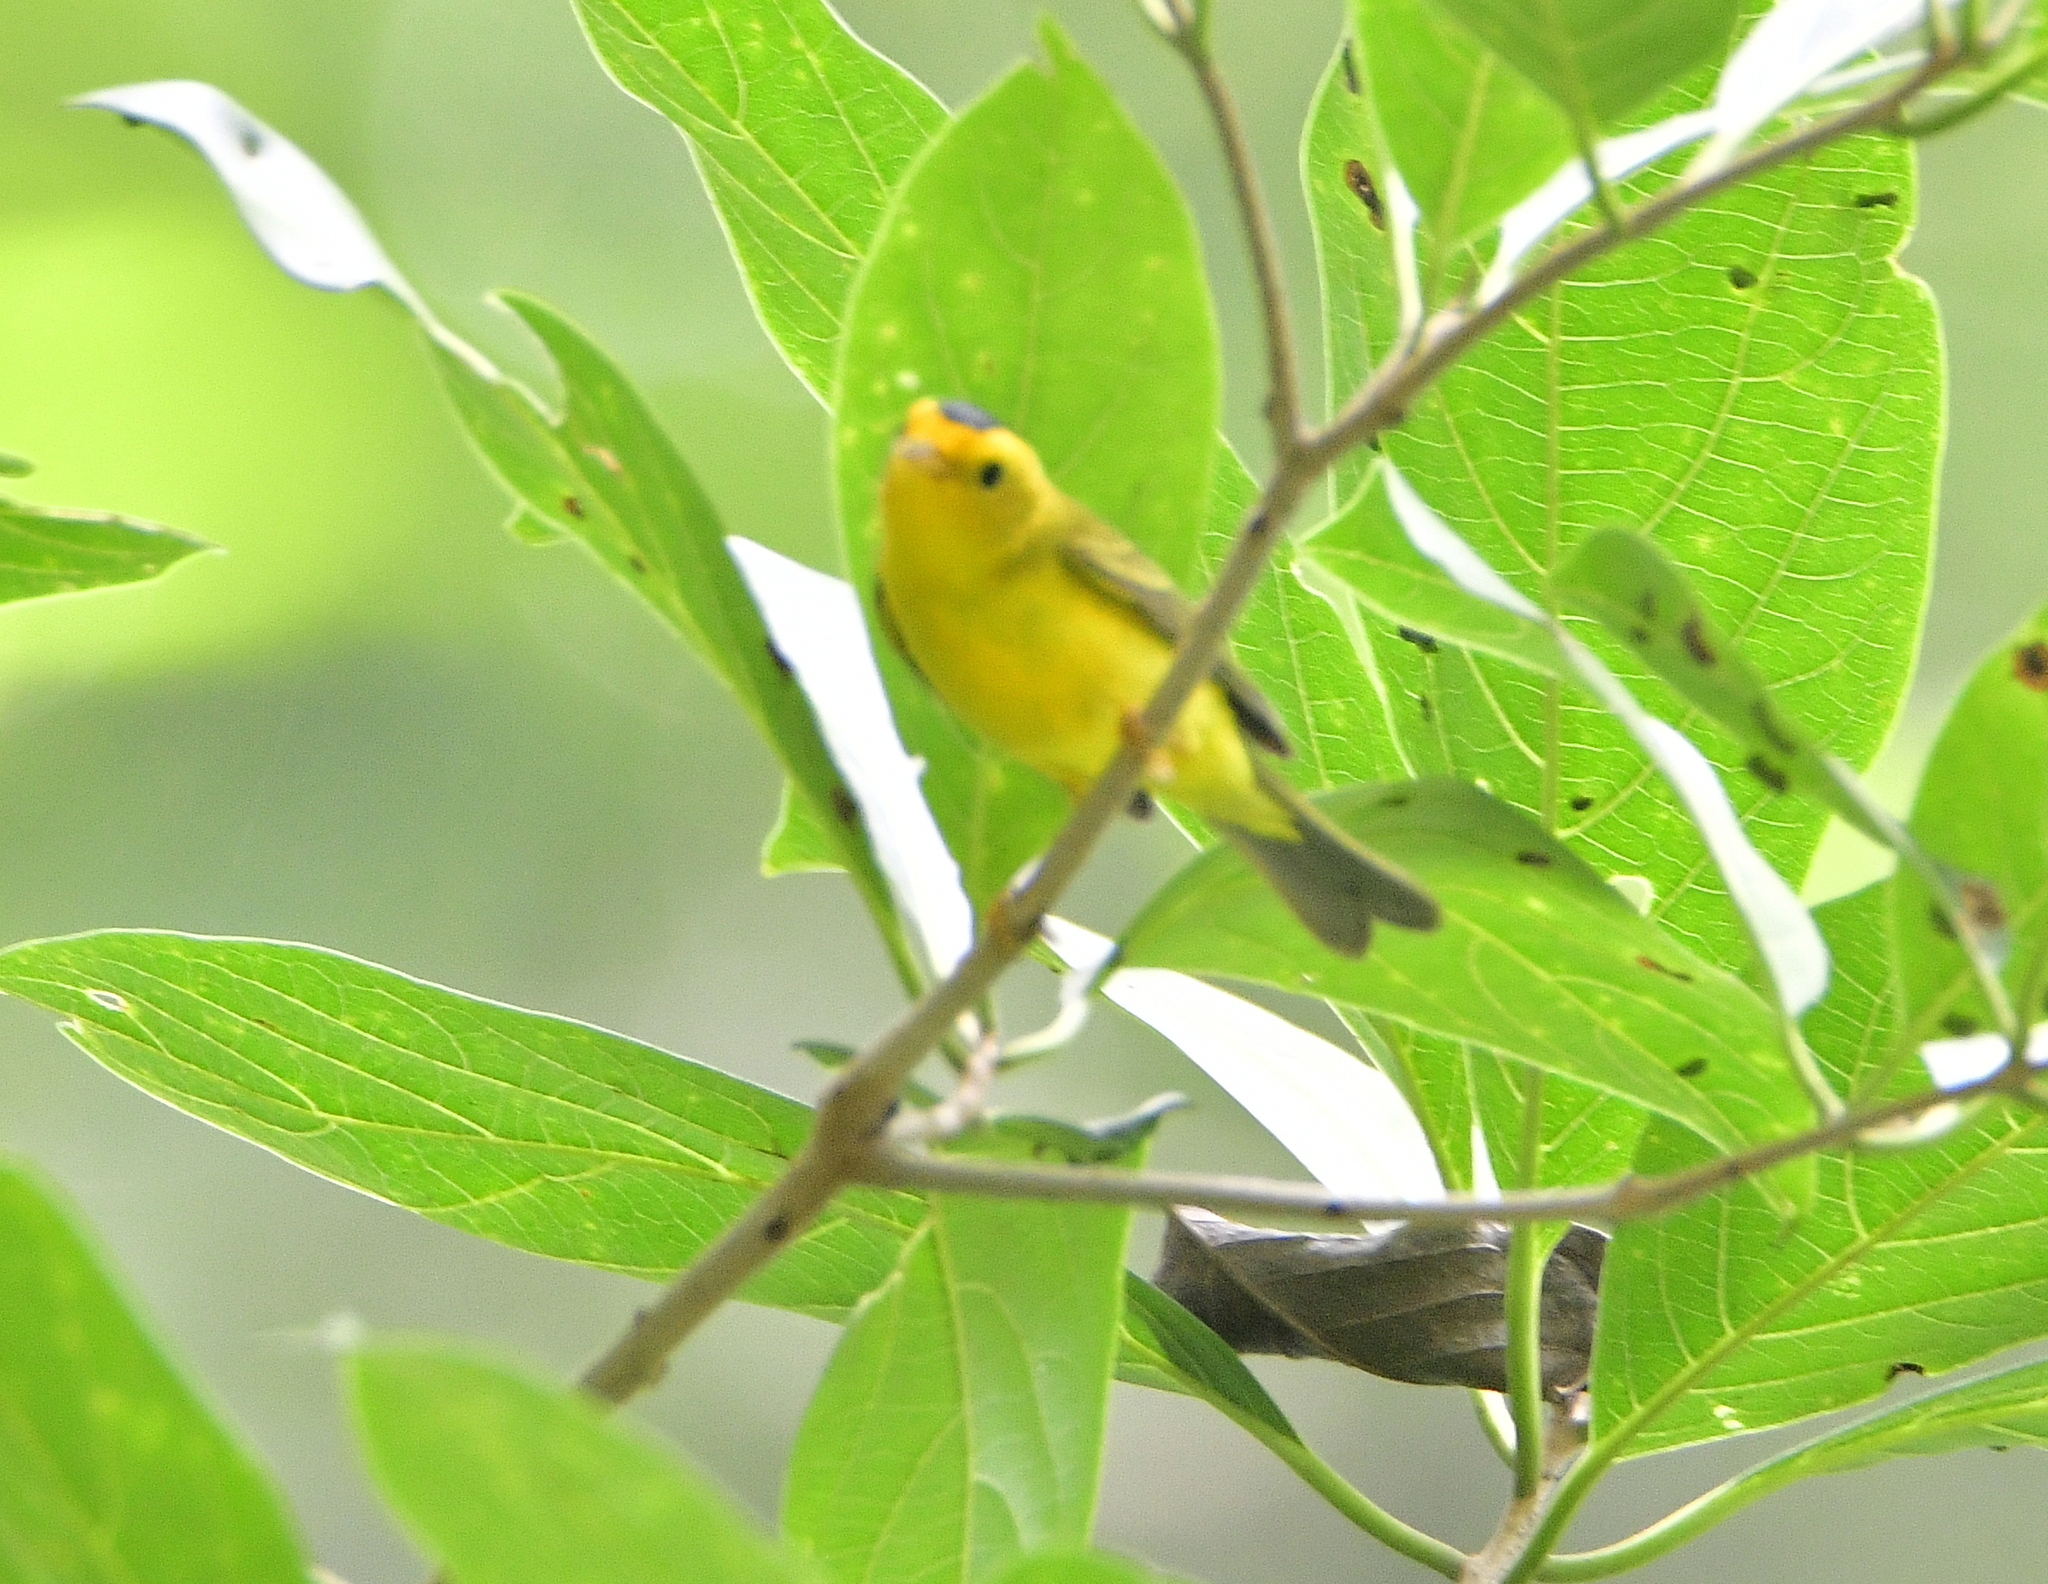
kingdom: Animalia
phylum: Chordata
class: Aves
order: Passeriformes
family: Parulidae
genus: Cardellina
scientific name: Cardellina pusilla
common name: Wilson's warbler
